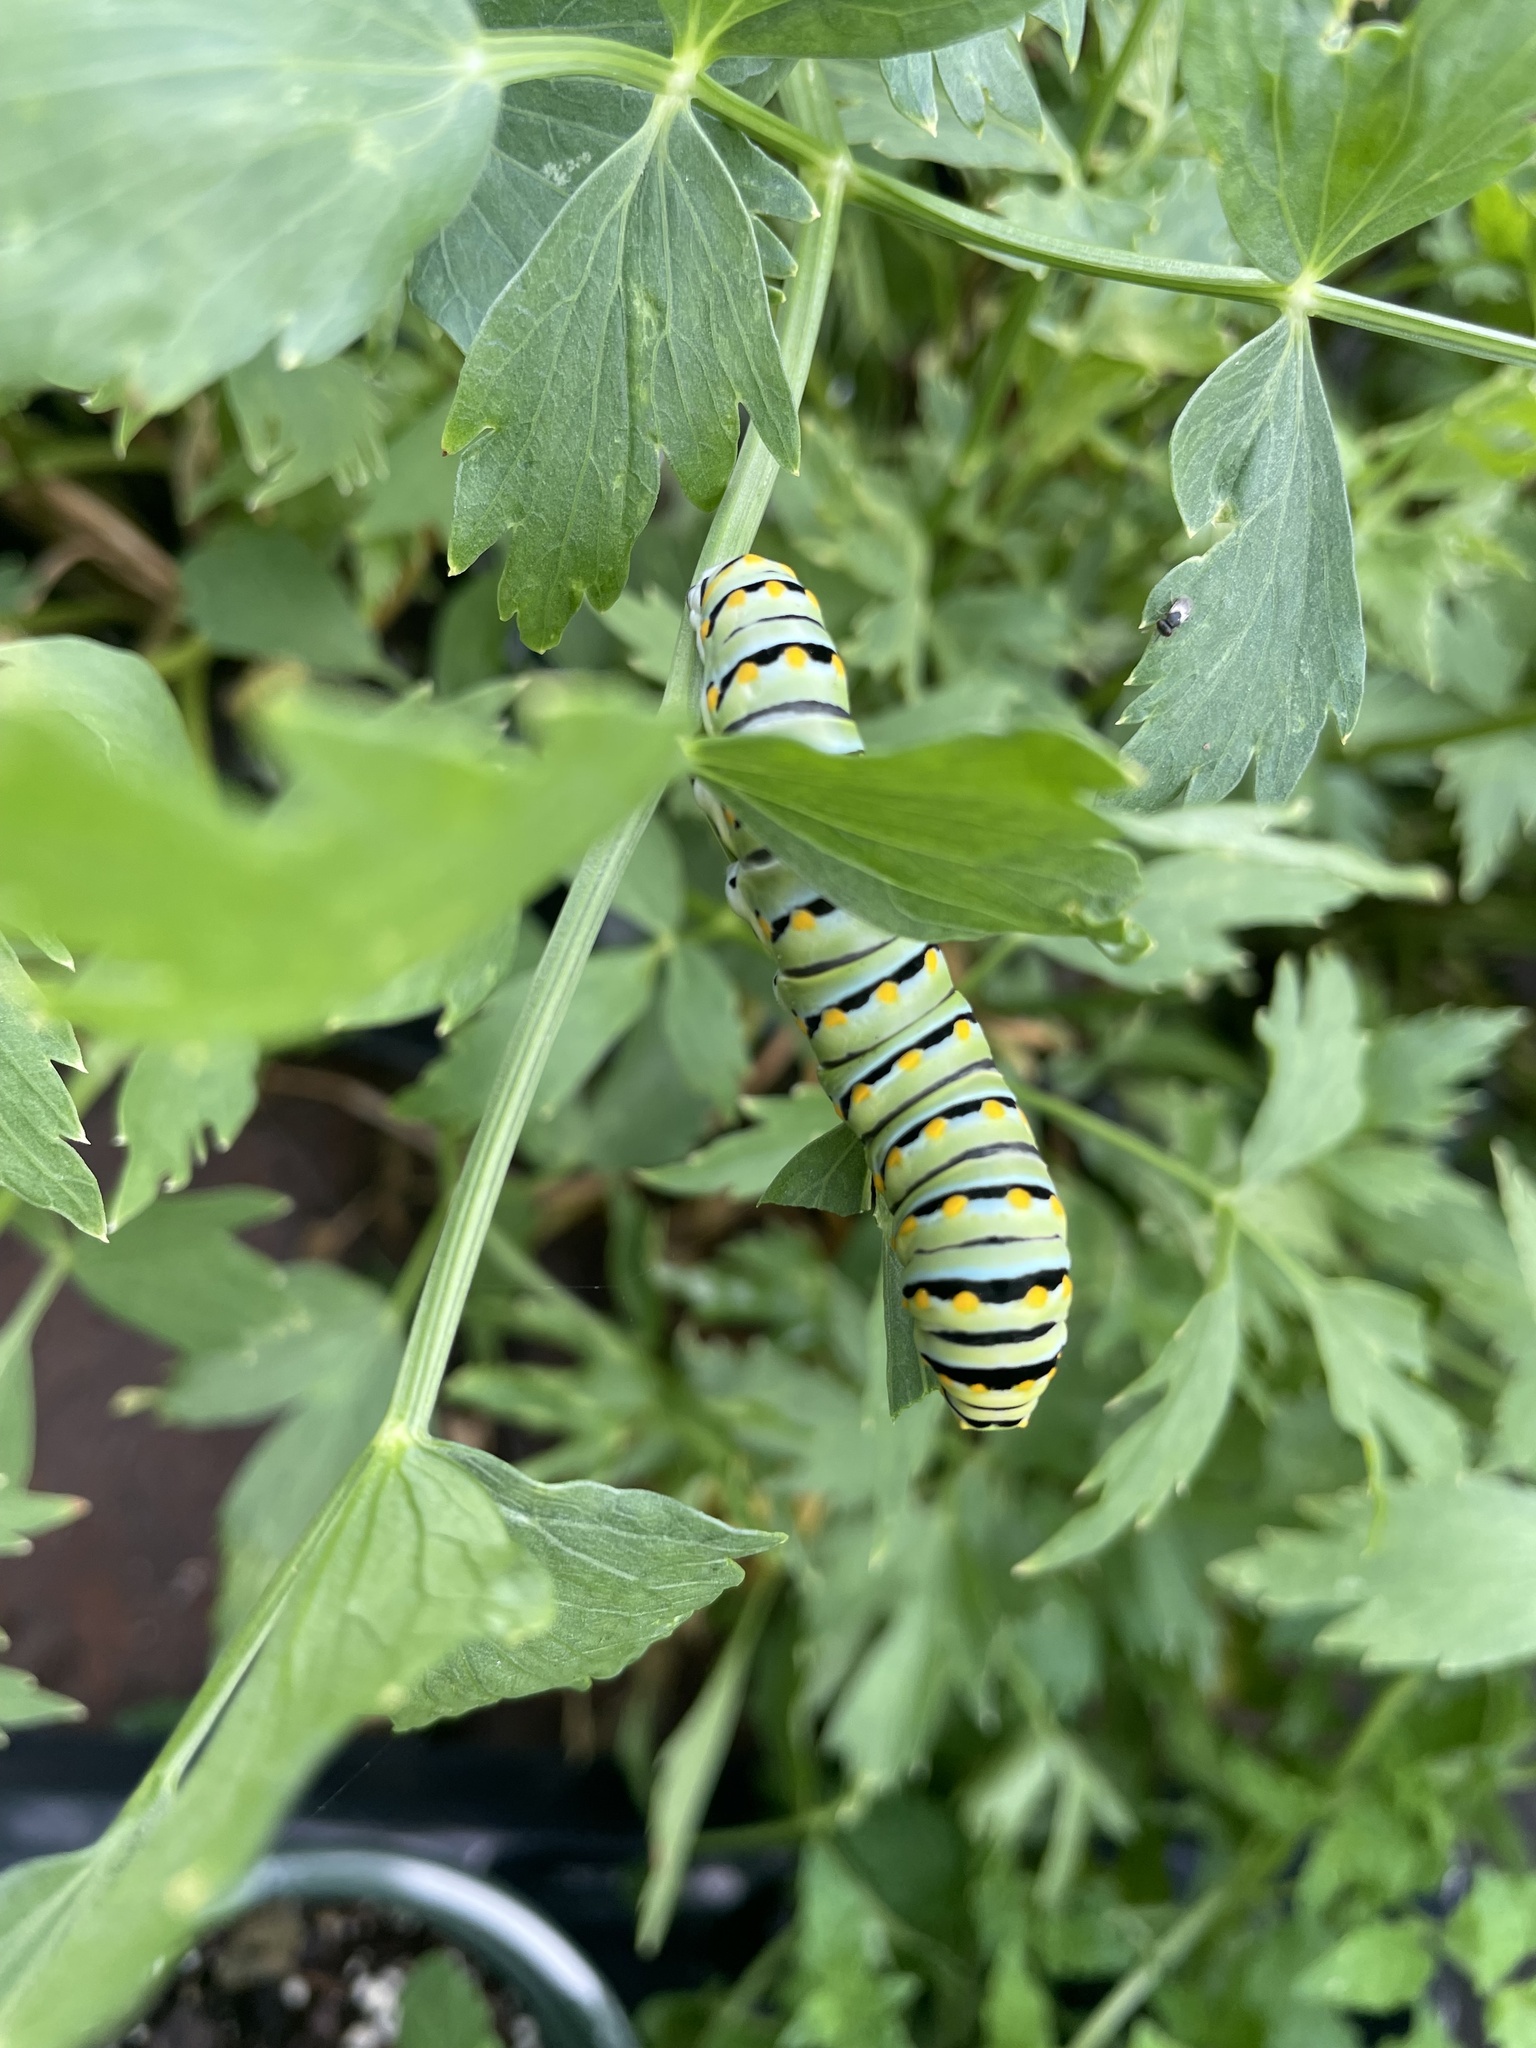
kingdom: Animalia
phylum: Arthropoda
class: Insecta
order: Lepidoptera
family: Papilionidae
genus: Papilio
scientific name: Papilio polyxenes
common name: Black swallowtail
